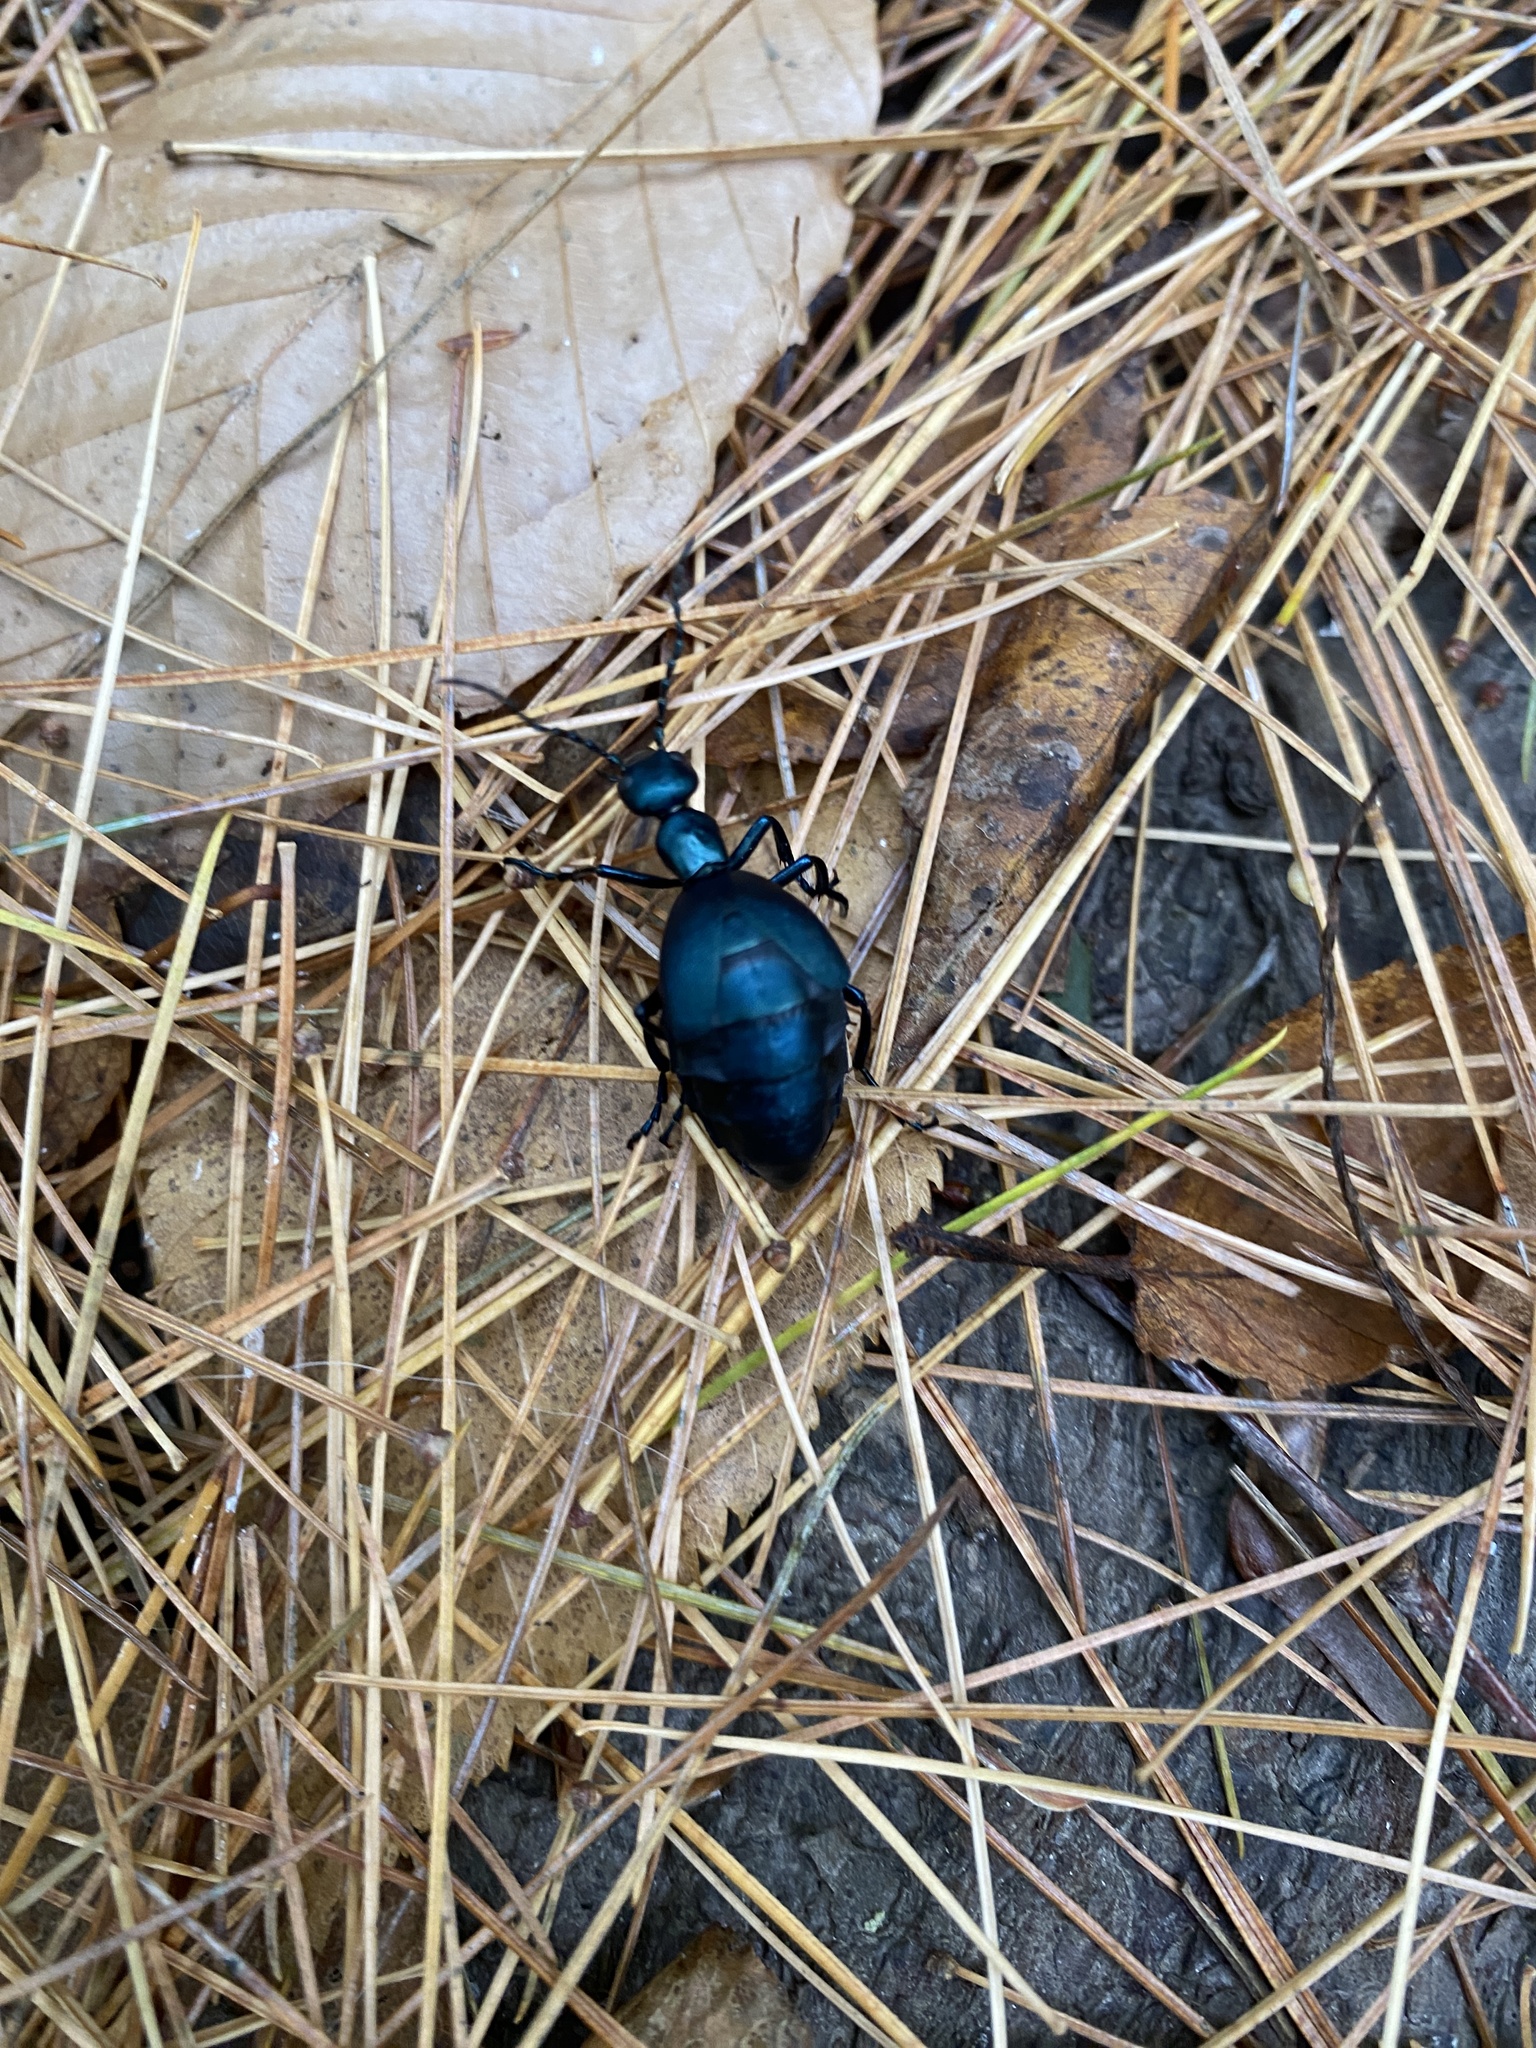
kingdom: Animalia
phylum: Arthropoda
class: Insecta
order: Coleoptera
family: Meloidae
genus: Meloe
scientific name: Meloe impressus
